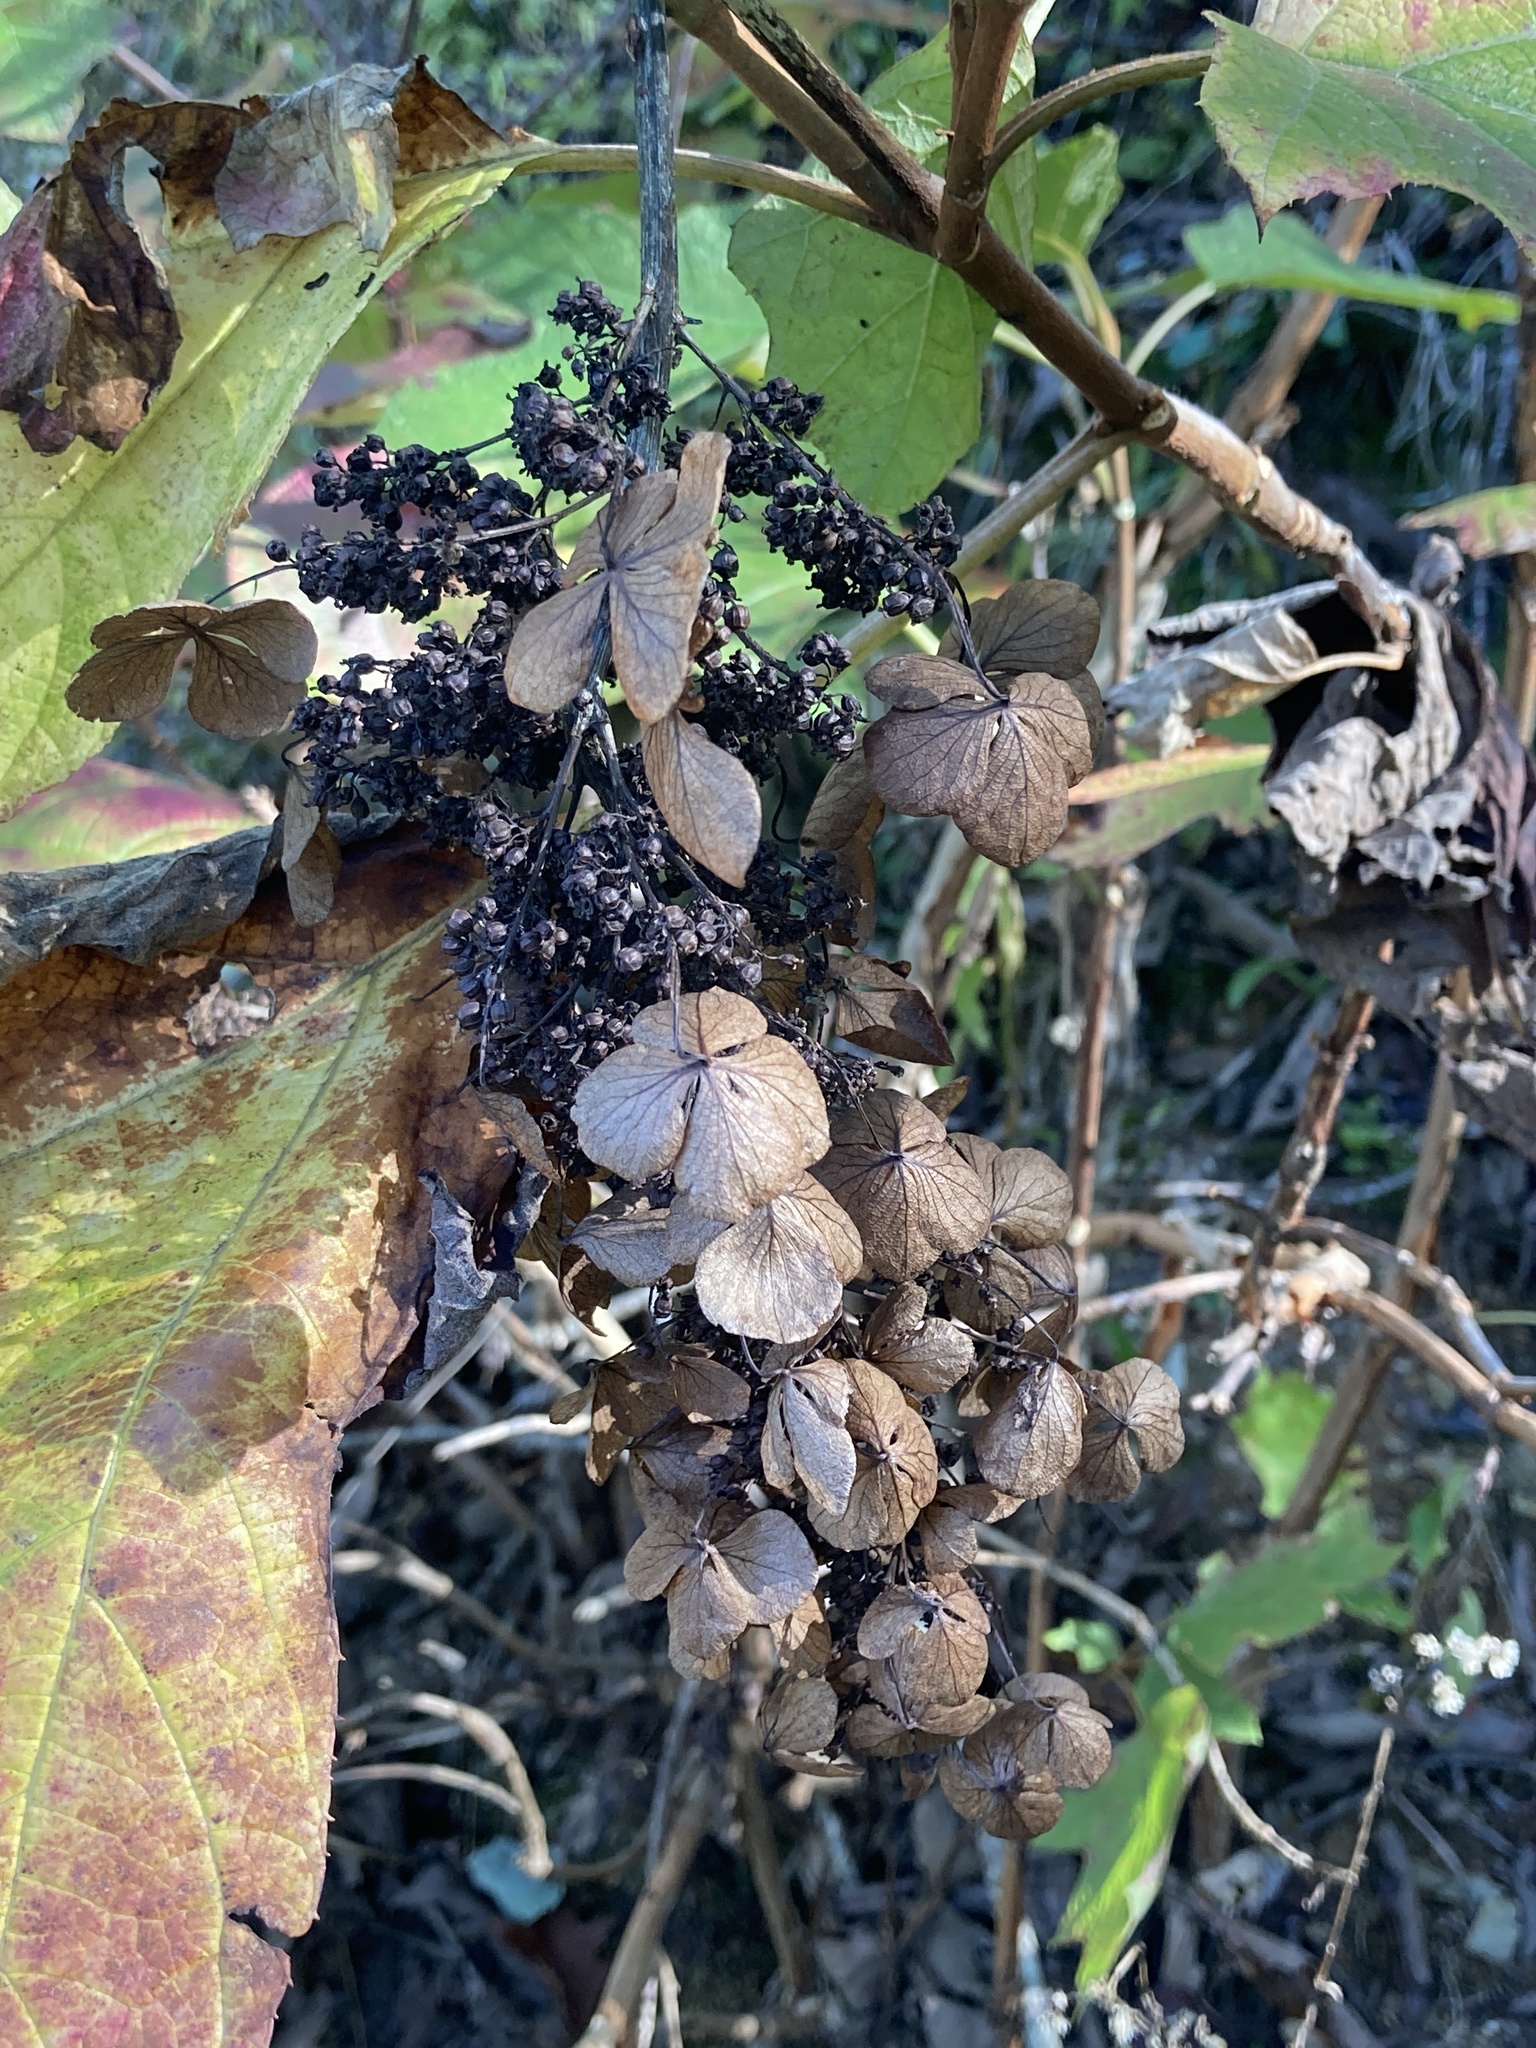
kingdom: Plantae
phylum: Tracheophyta
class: Magnoliopsida
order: Cornales
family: Hydrangeaceae
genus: Hydrangea
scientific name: Hydrangea quercifolia
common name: Oak-leaf hydrangea
